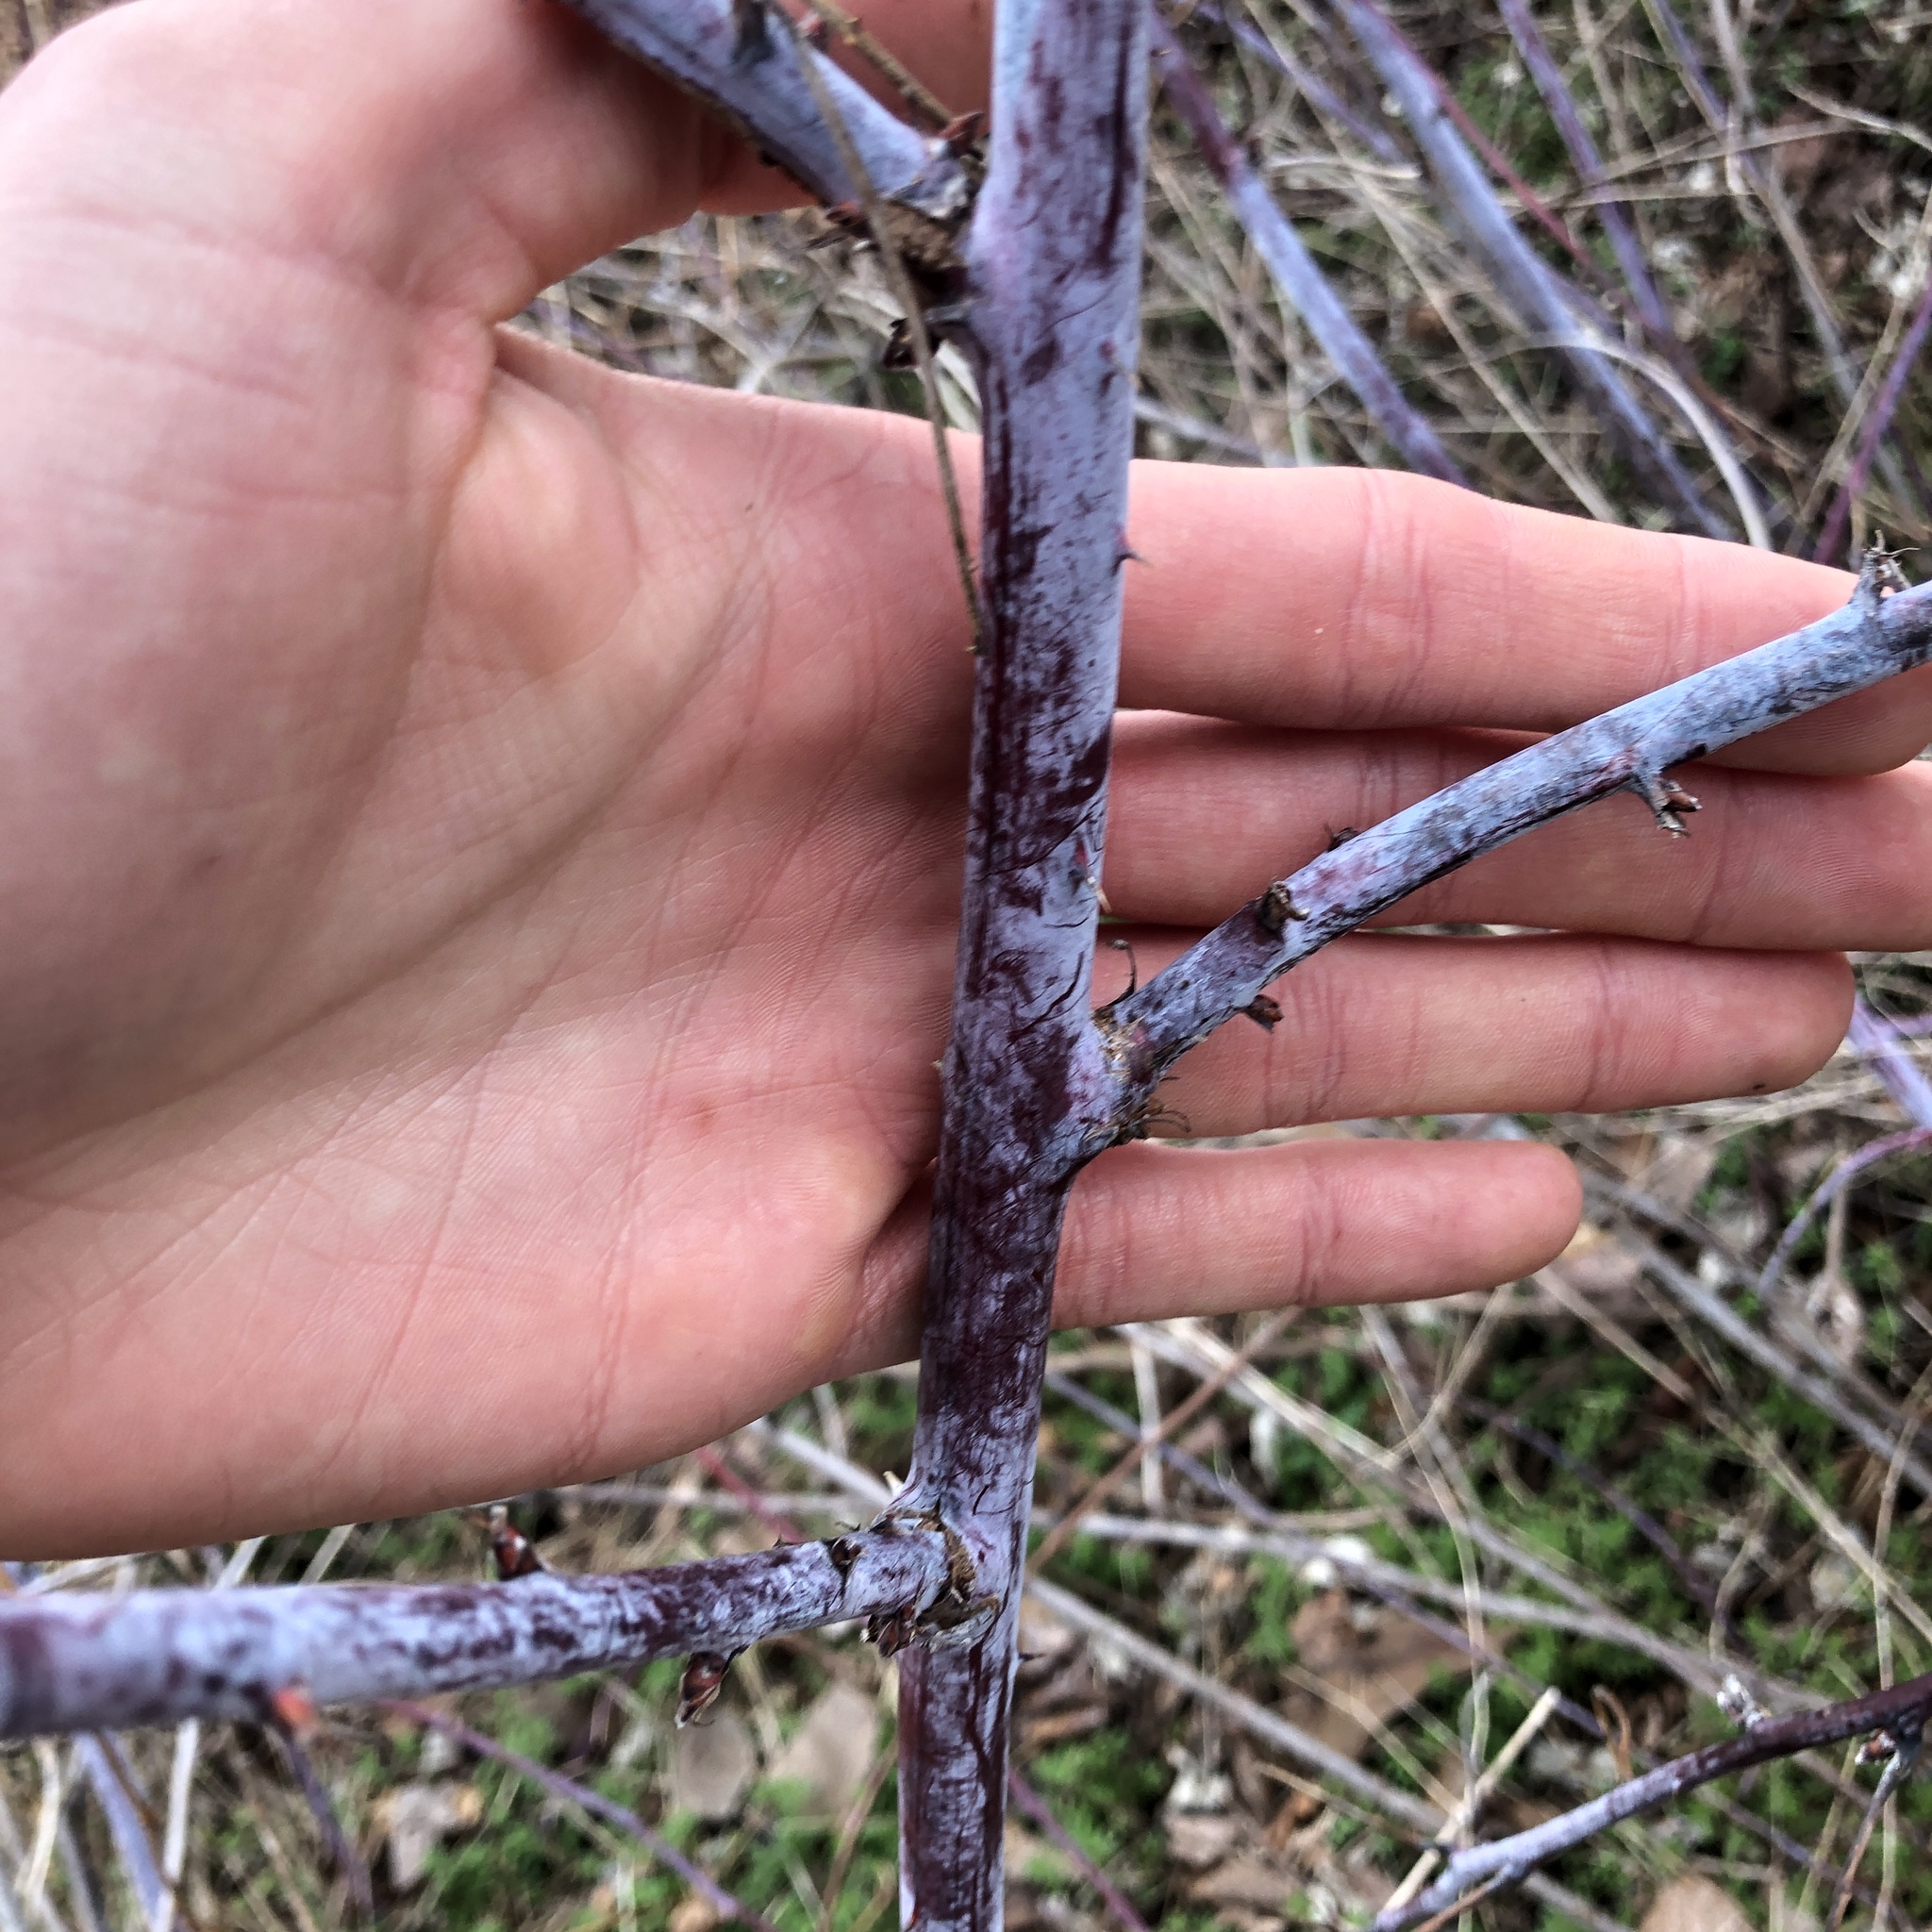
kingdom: Plantae
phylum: Tracheophyta
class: Magnoliopsida
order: Rosales
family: Rosaceae
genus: Rubus
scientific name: Rubus occidentalis
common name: Black raspberry
